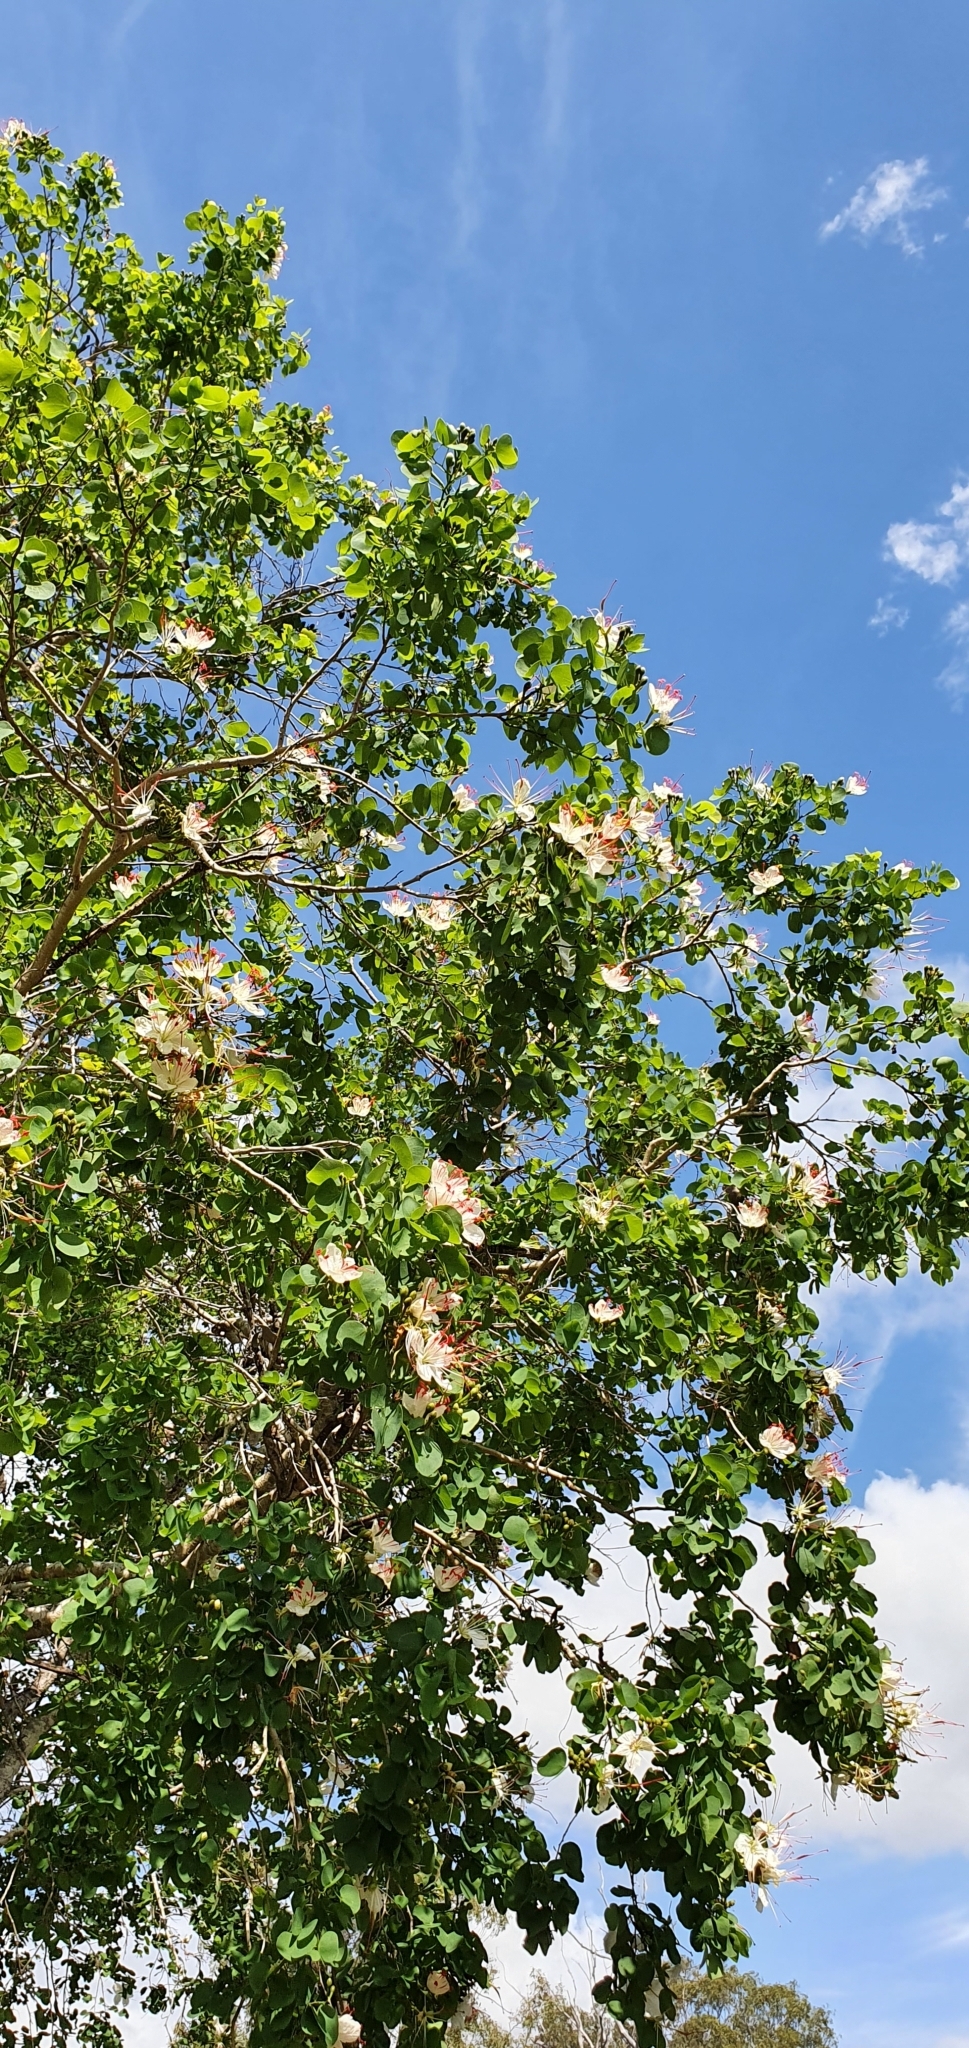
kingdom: Plantae
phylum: Tracheophyta
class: Magnoliopsida
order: Fabales
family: Fabaceae
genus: Lysiphyllum
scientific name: Lysiphyllum hookeri
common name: Hooker's bauhinia
